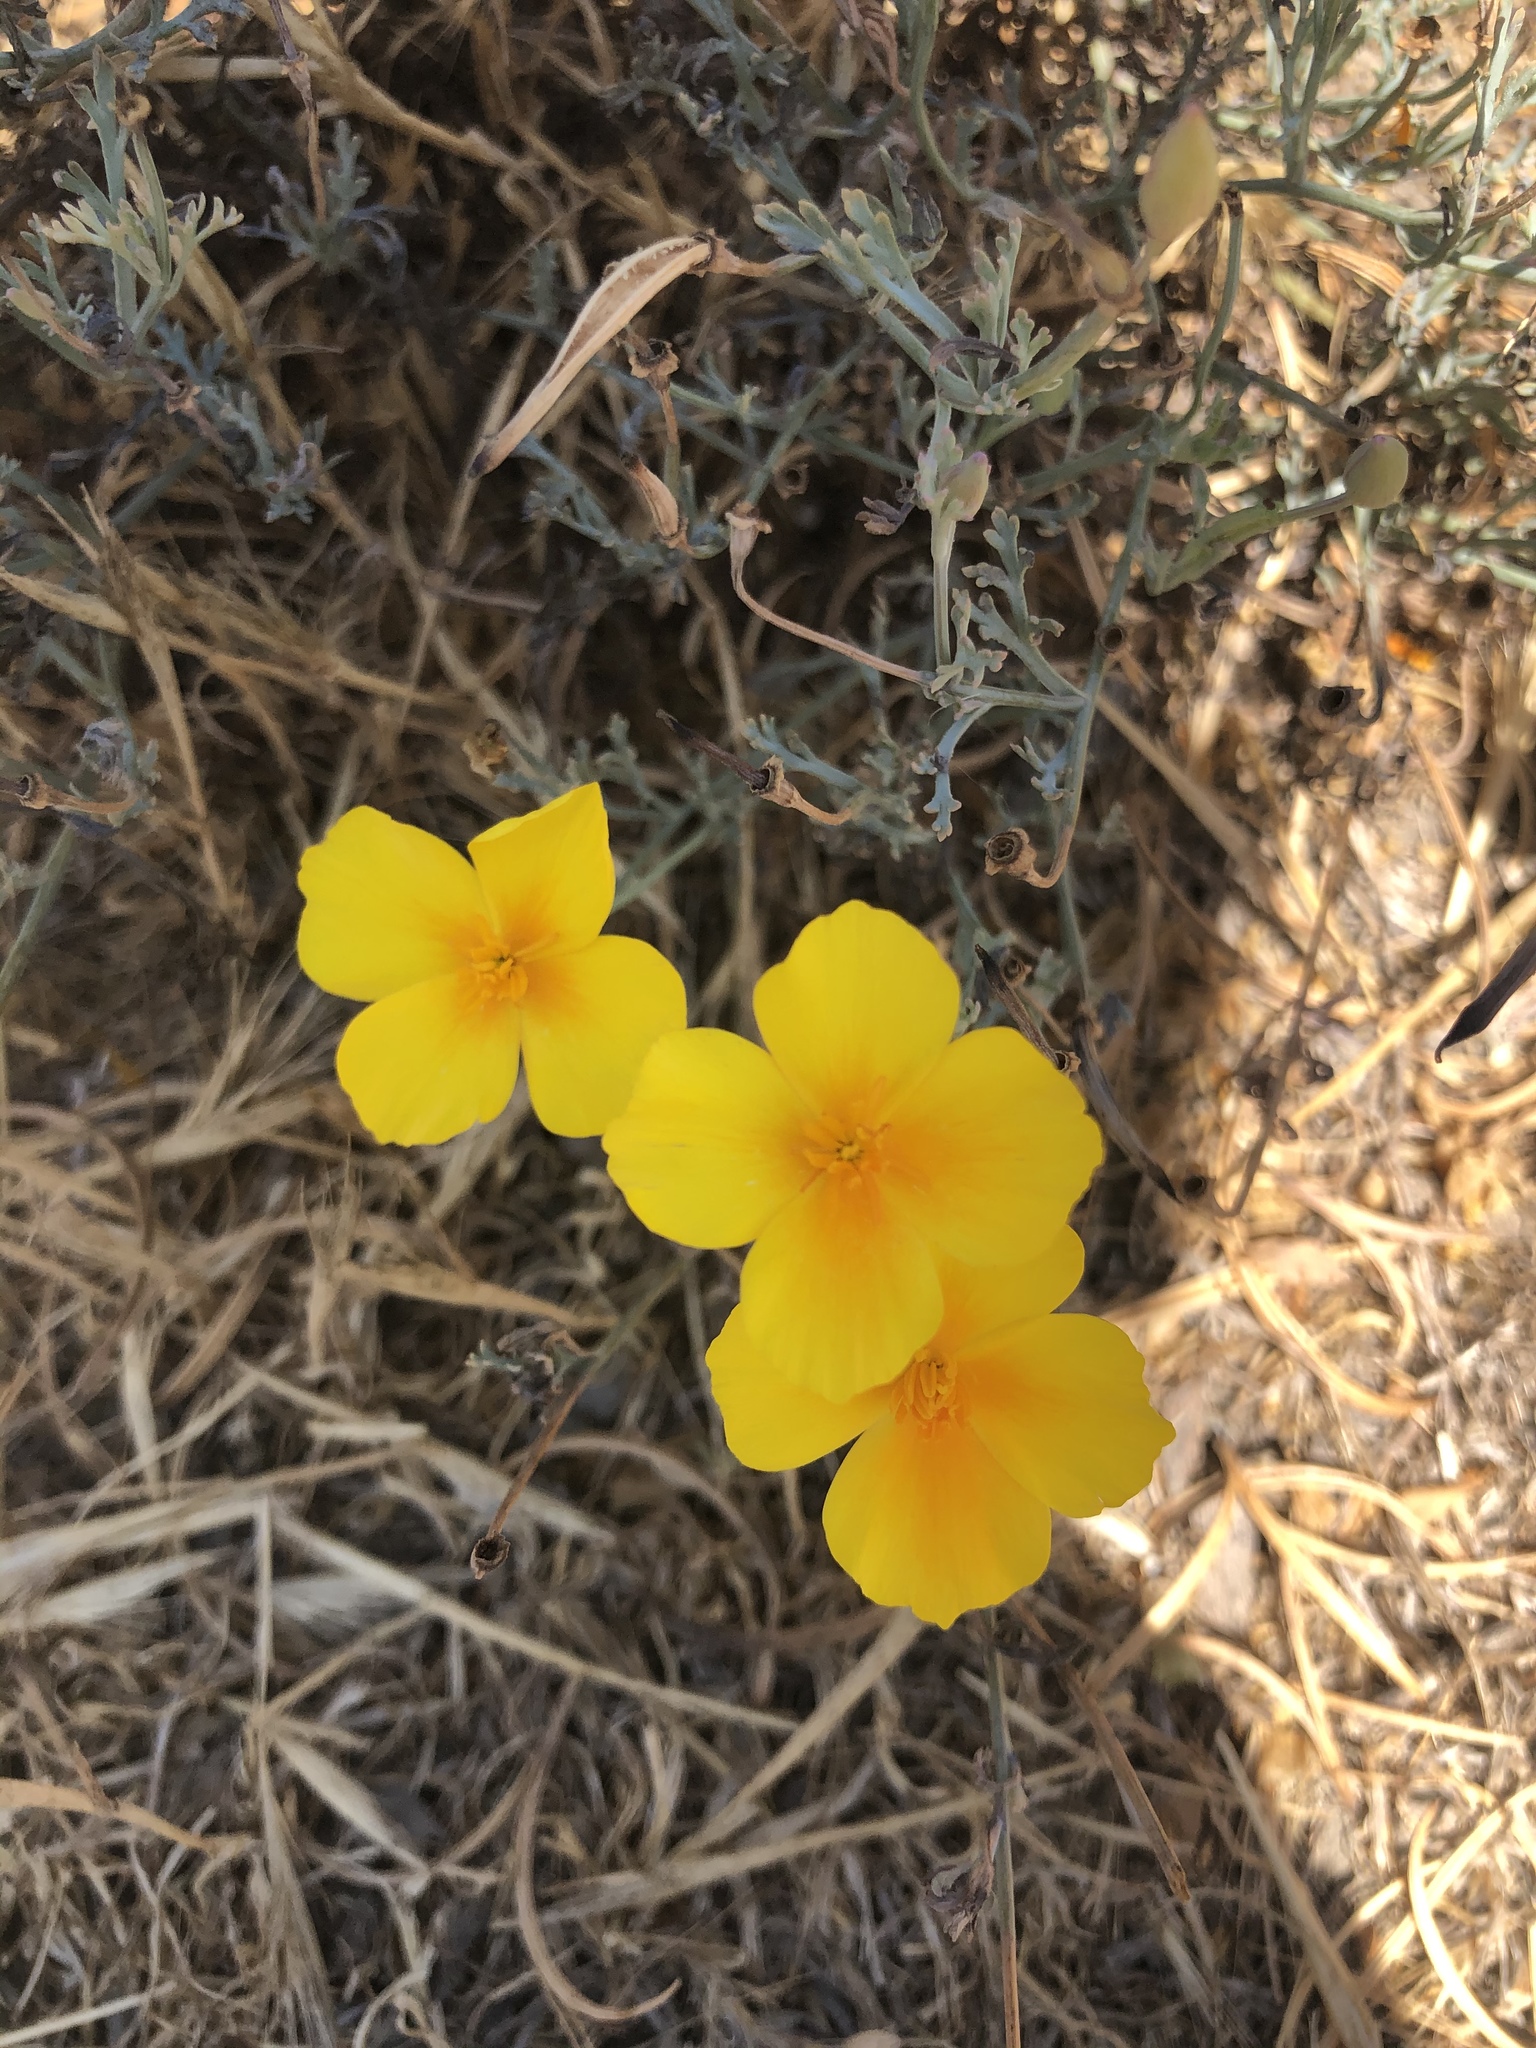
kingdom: Plantae
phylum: Tracheophyta
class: Magnoliopsida
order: Ranunculales
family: Papaveraceae
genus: Eschscholzia
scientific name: Eschscholzia californica
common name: California poppy
